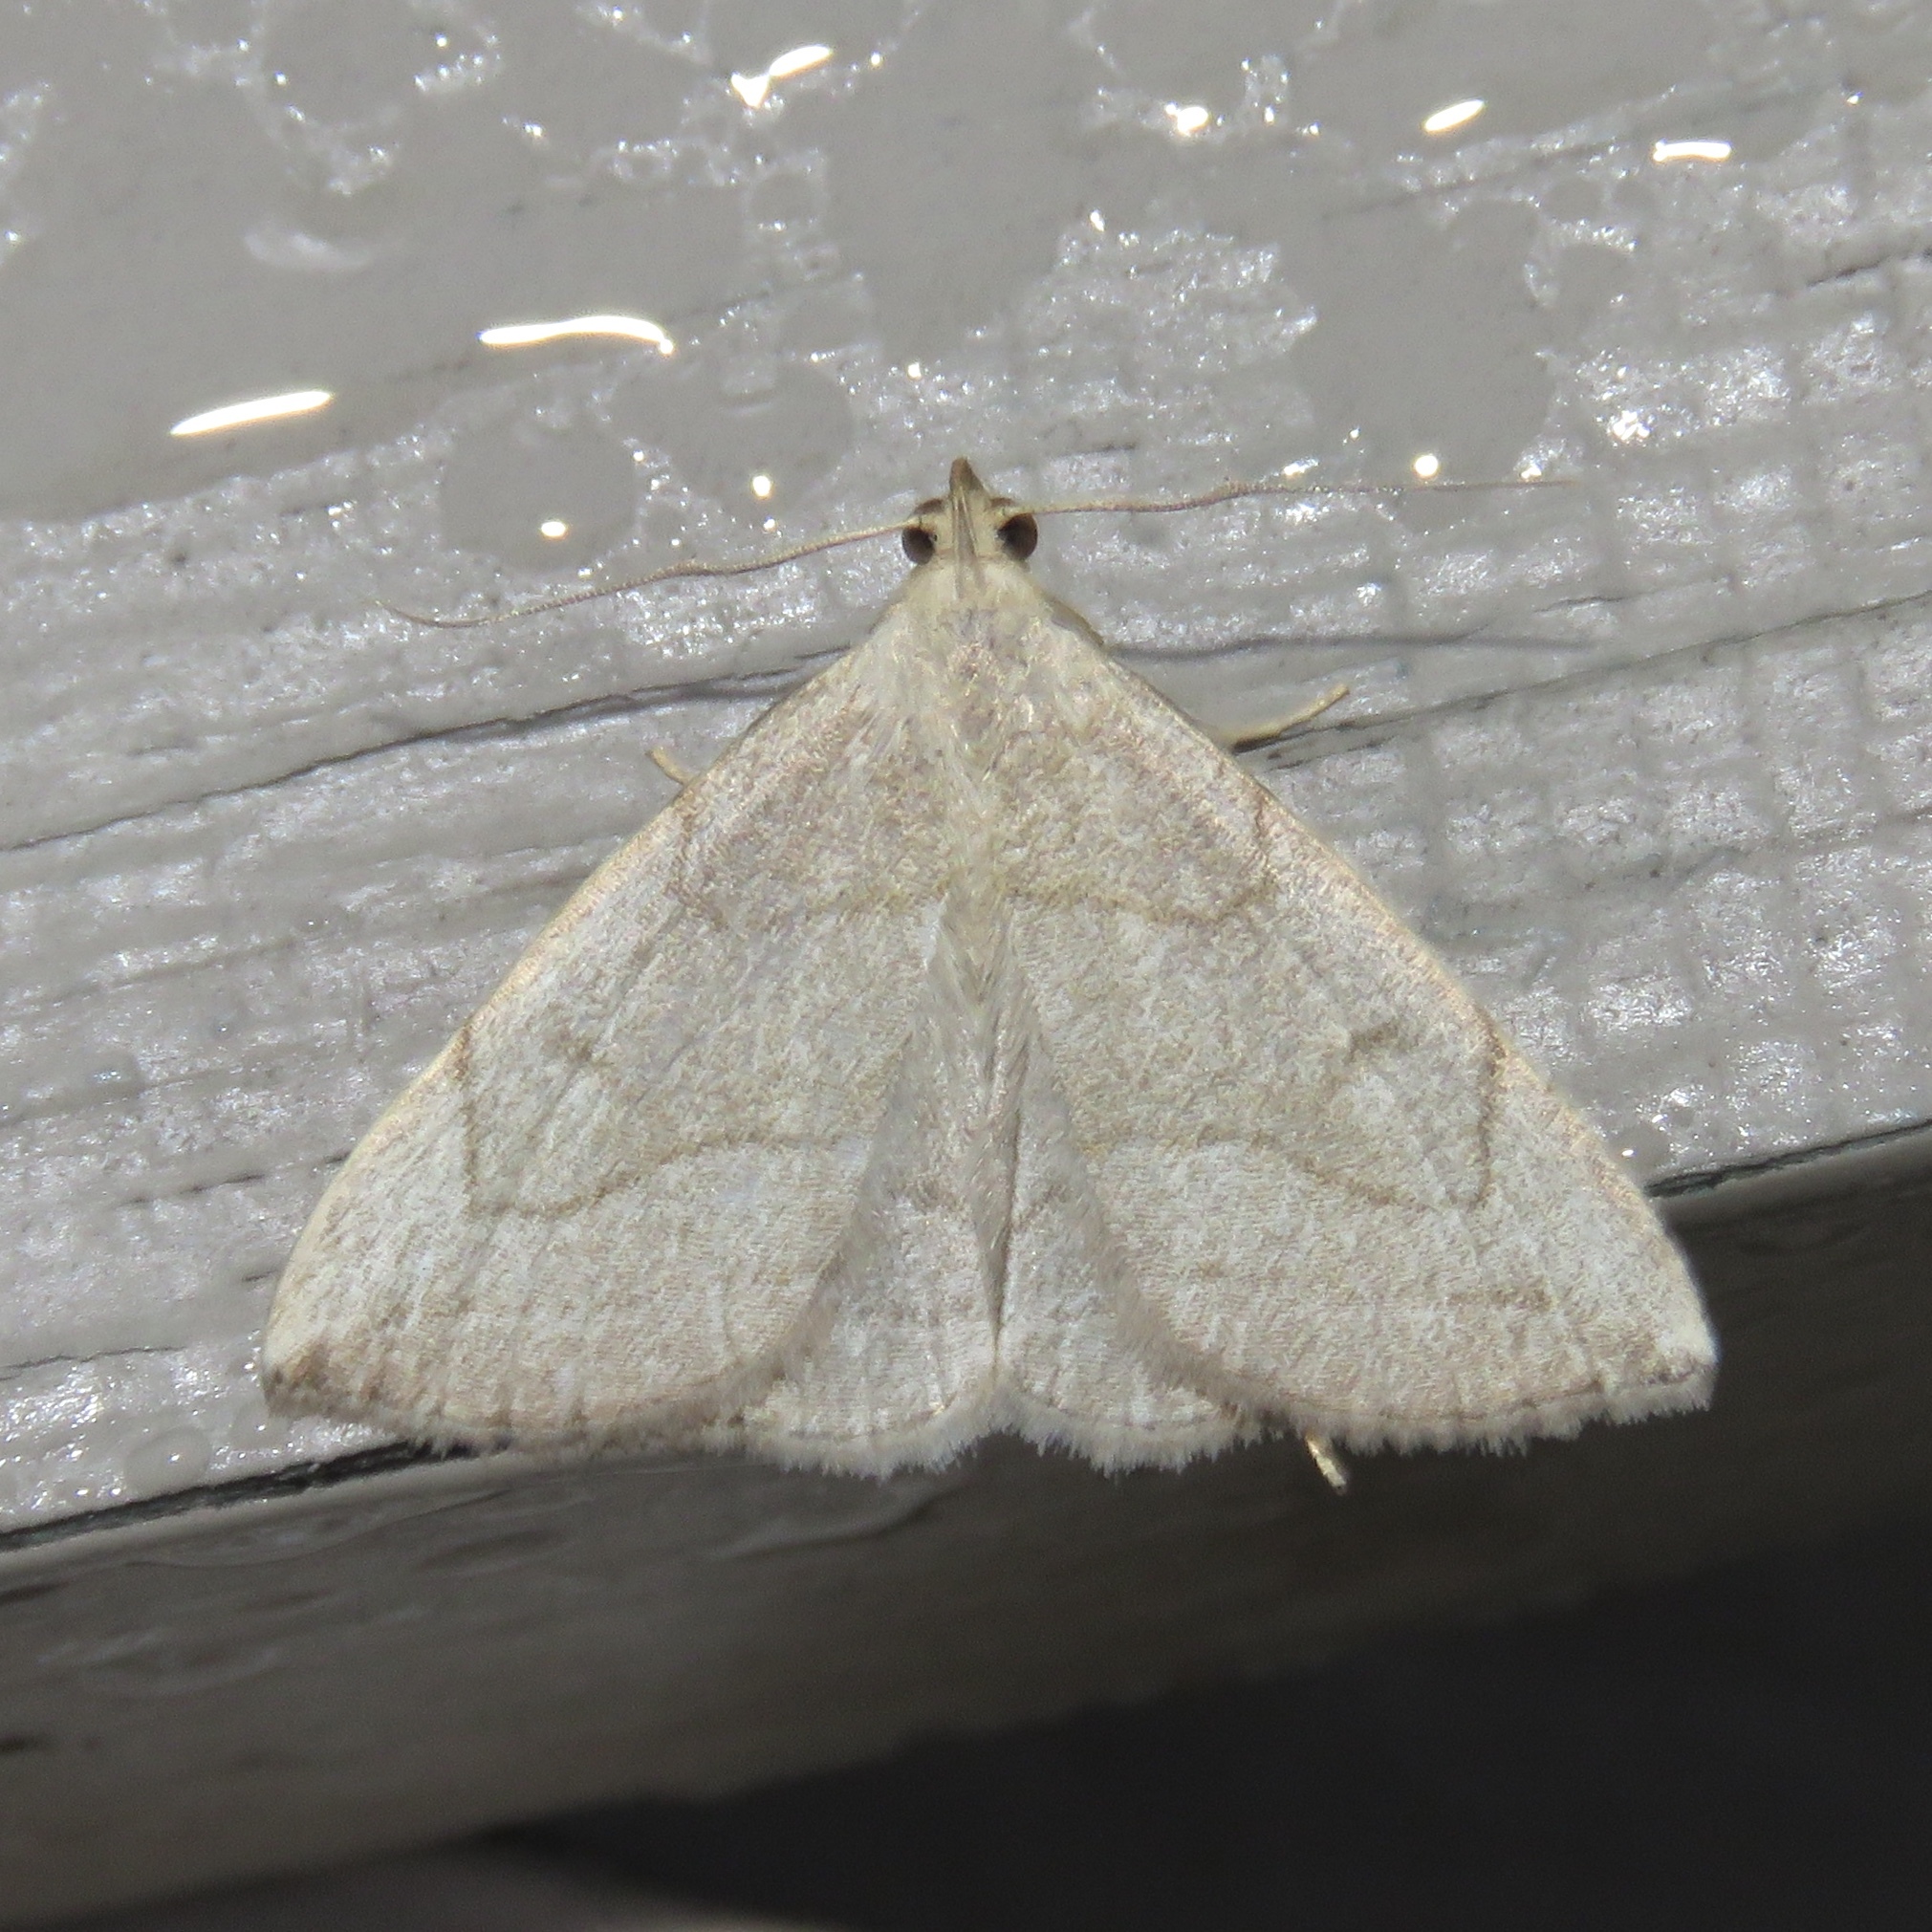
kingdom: Animalia
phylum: Arthropoda
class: Insecta
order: Lepidoptera
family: Erebidae
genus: Zanclognatha
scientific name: Zanclognatha pedipilalis
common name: Grayish fan-foot
